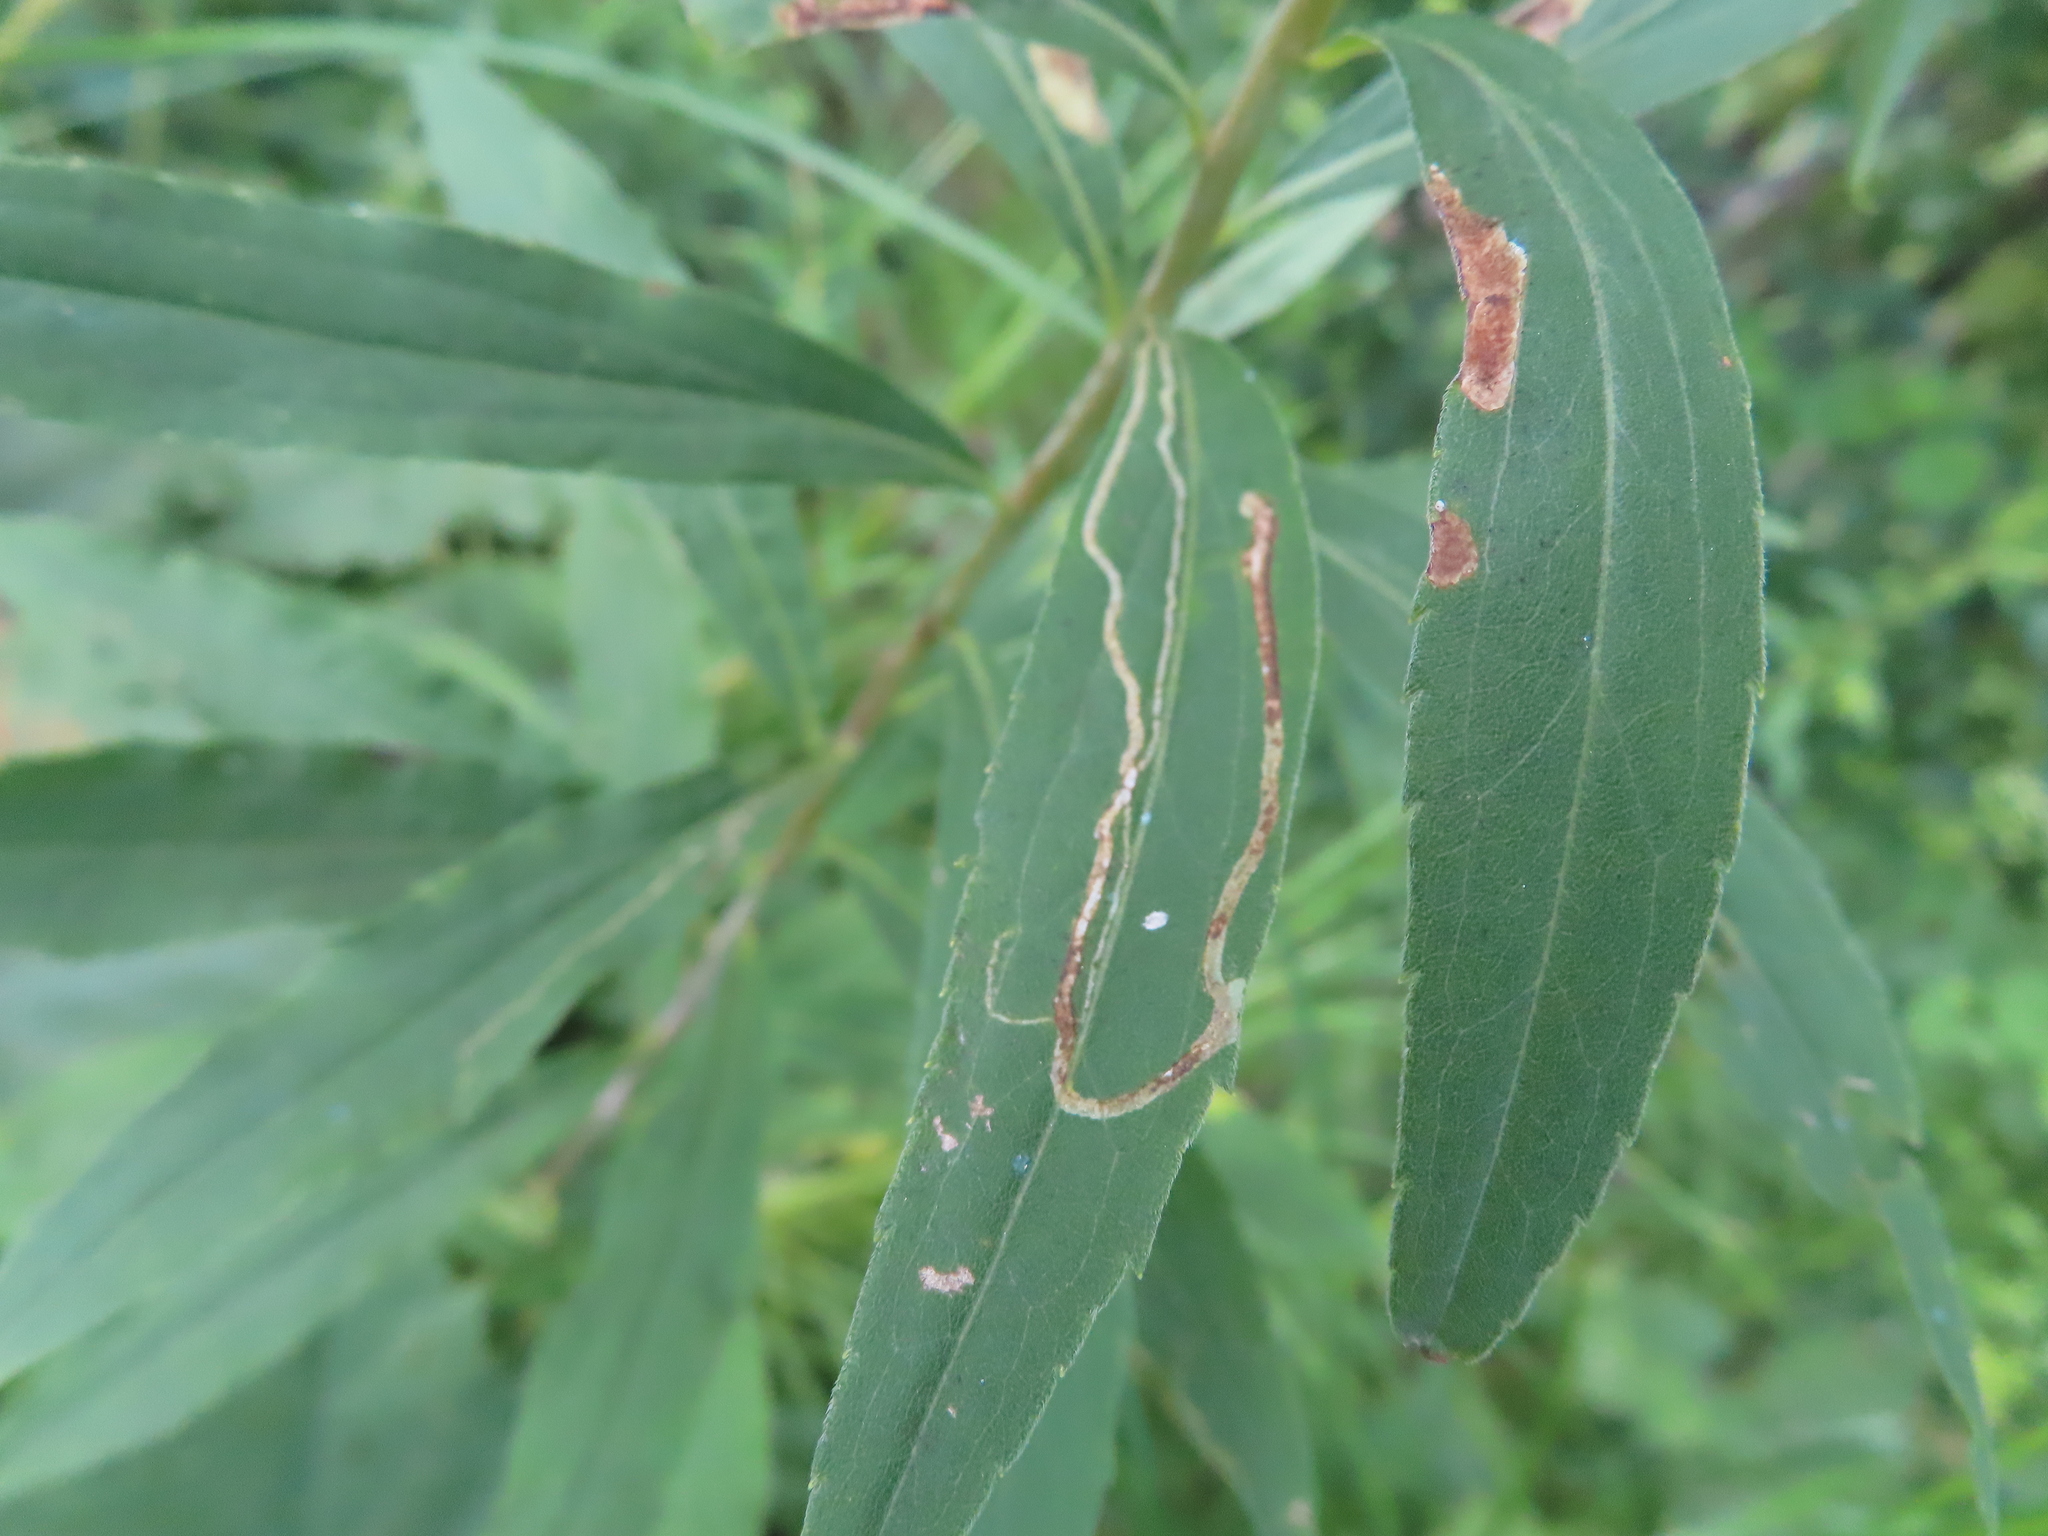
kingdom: Animalia
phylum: Arthropoda
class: Insecta
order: Diptera
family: Agromyzidae
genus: Ophiomyia
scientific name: Ophiomyia maura
